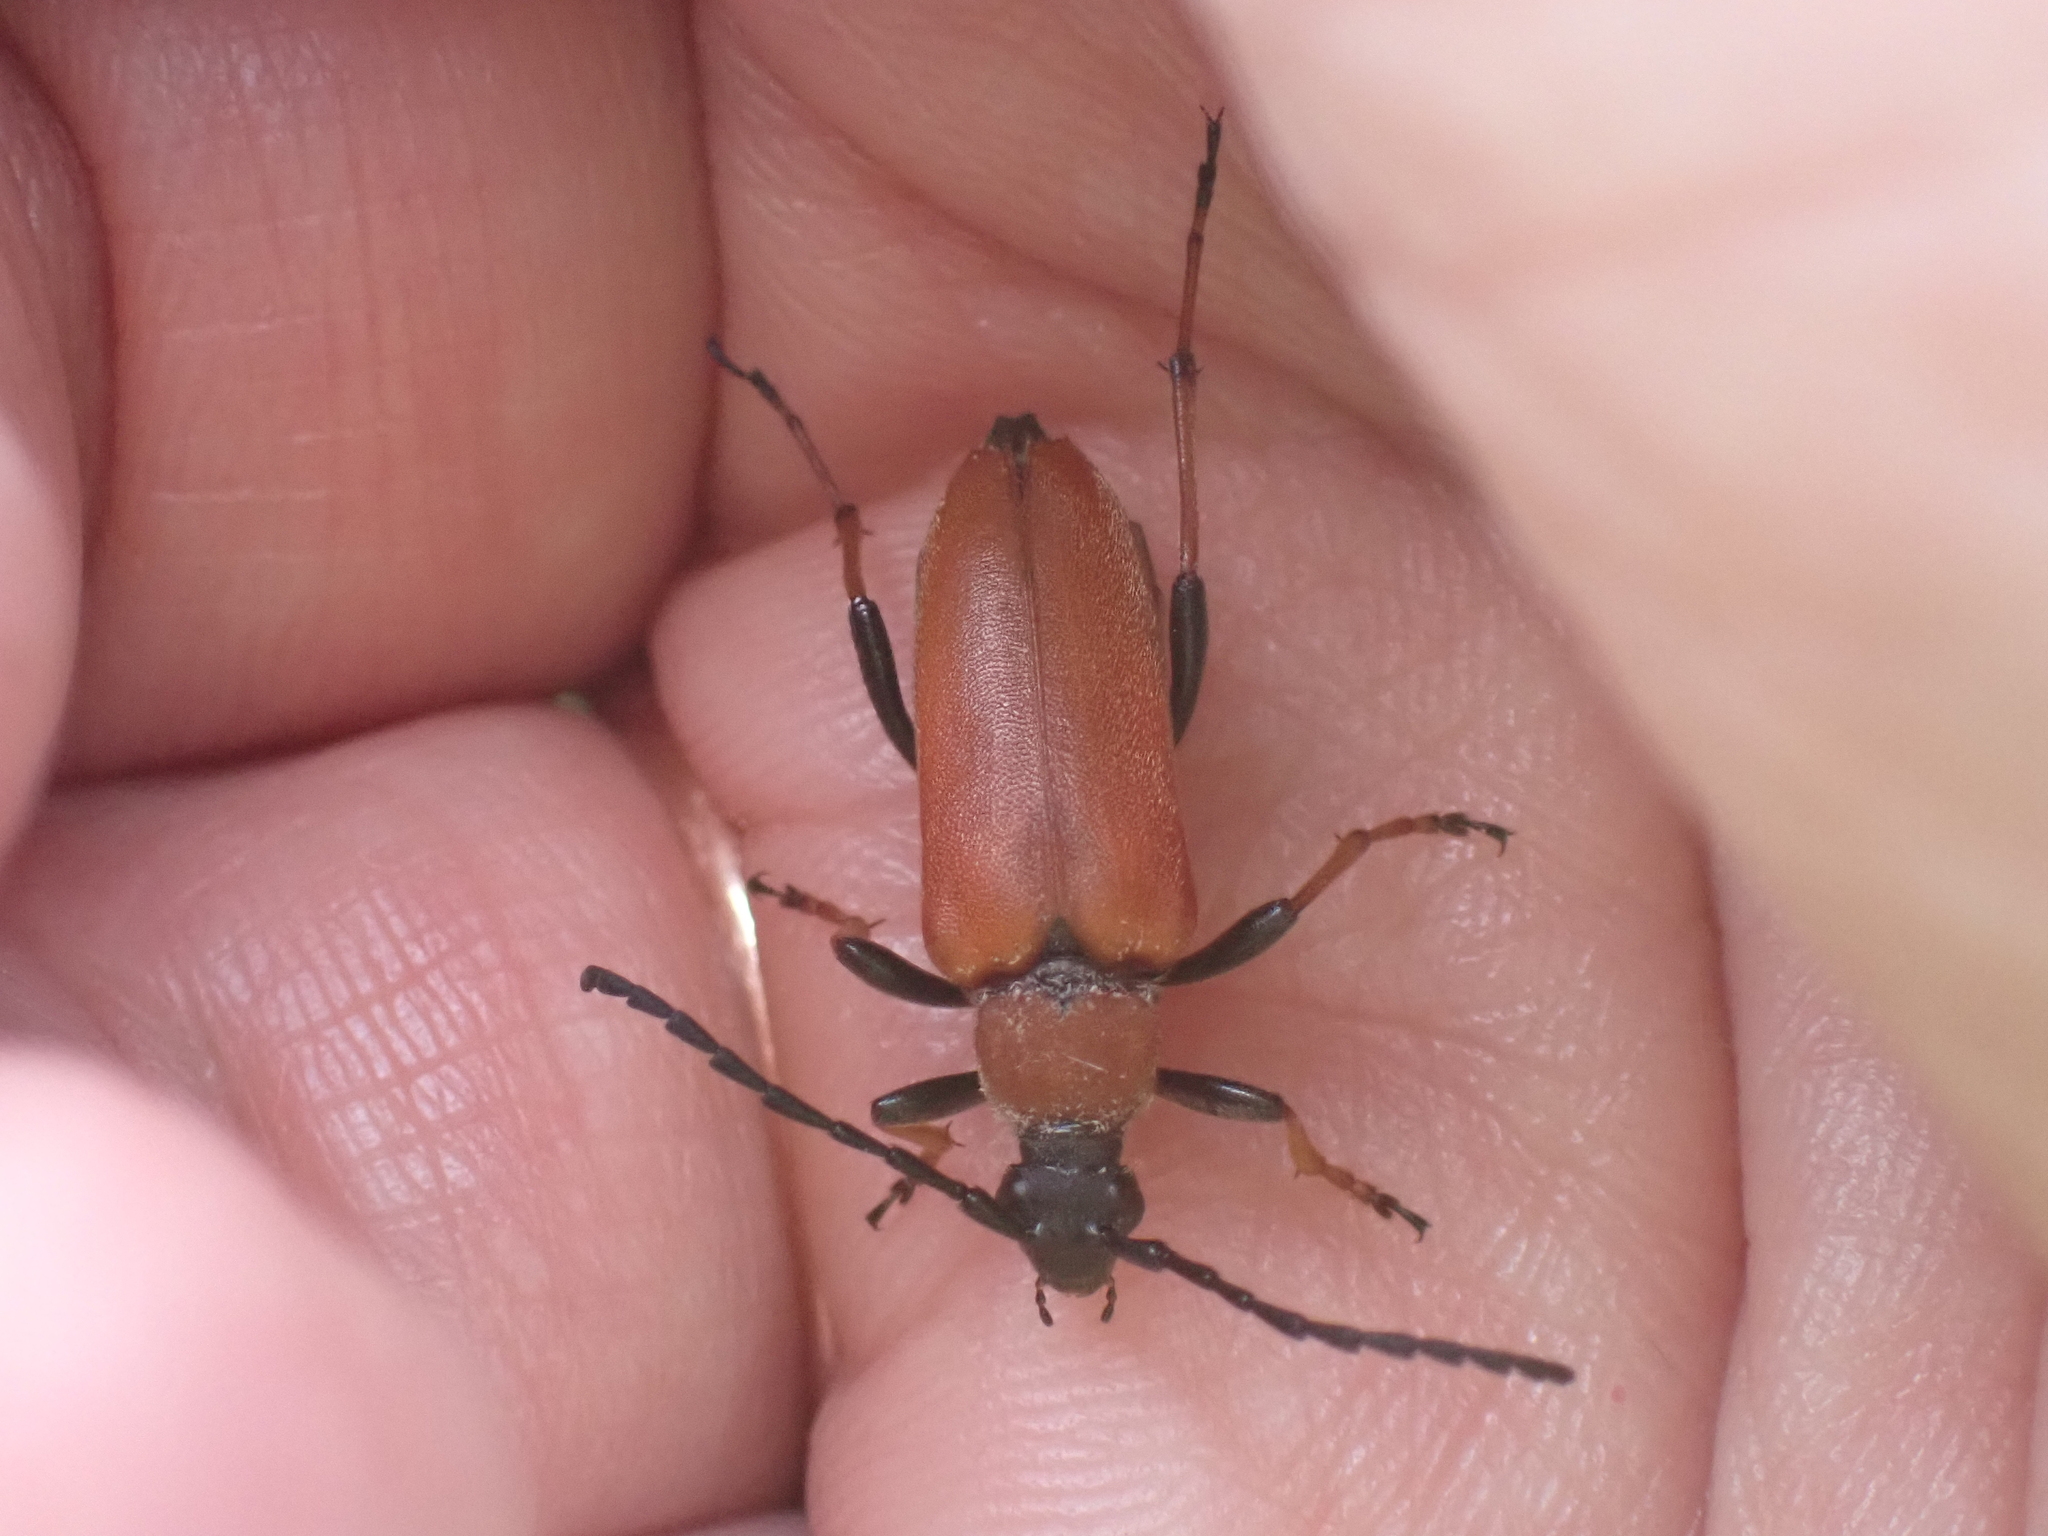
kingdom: Animalia
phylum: Arthropoda
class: Insecta
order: Coleoptera
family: Cerambycidae
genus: Stictoleptura
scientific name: Stictoleptura rubra
